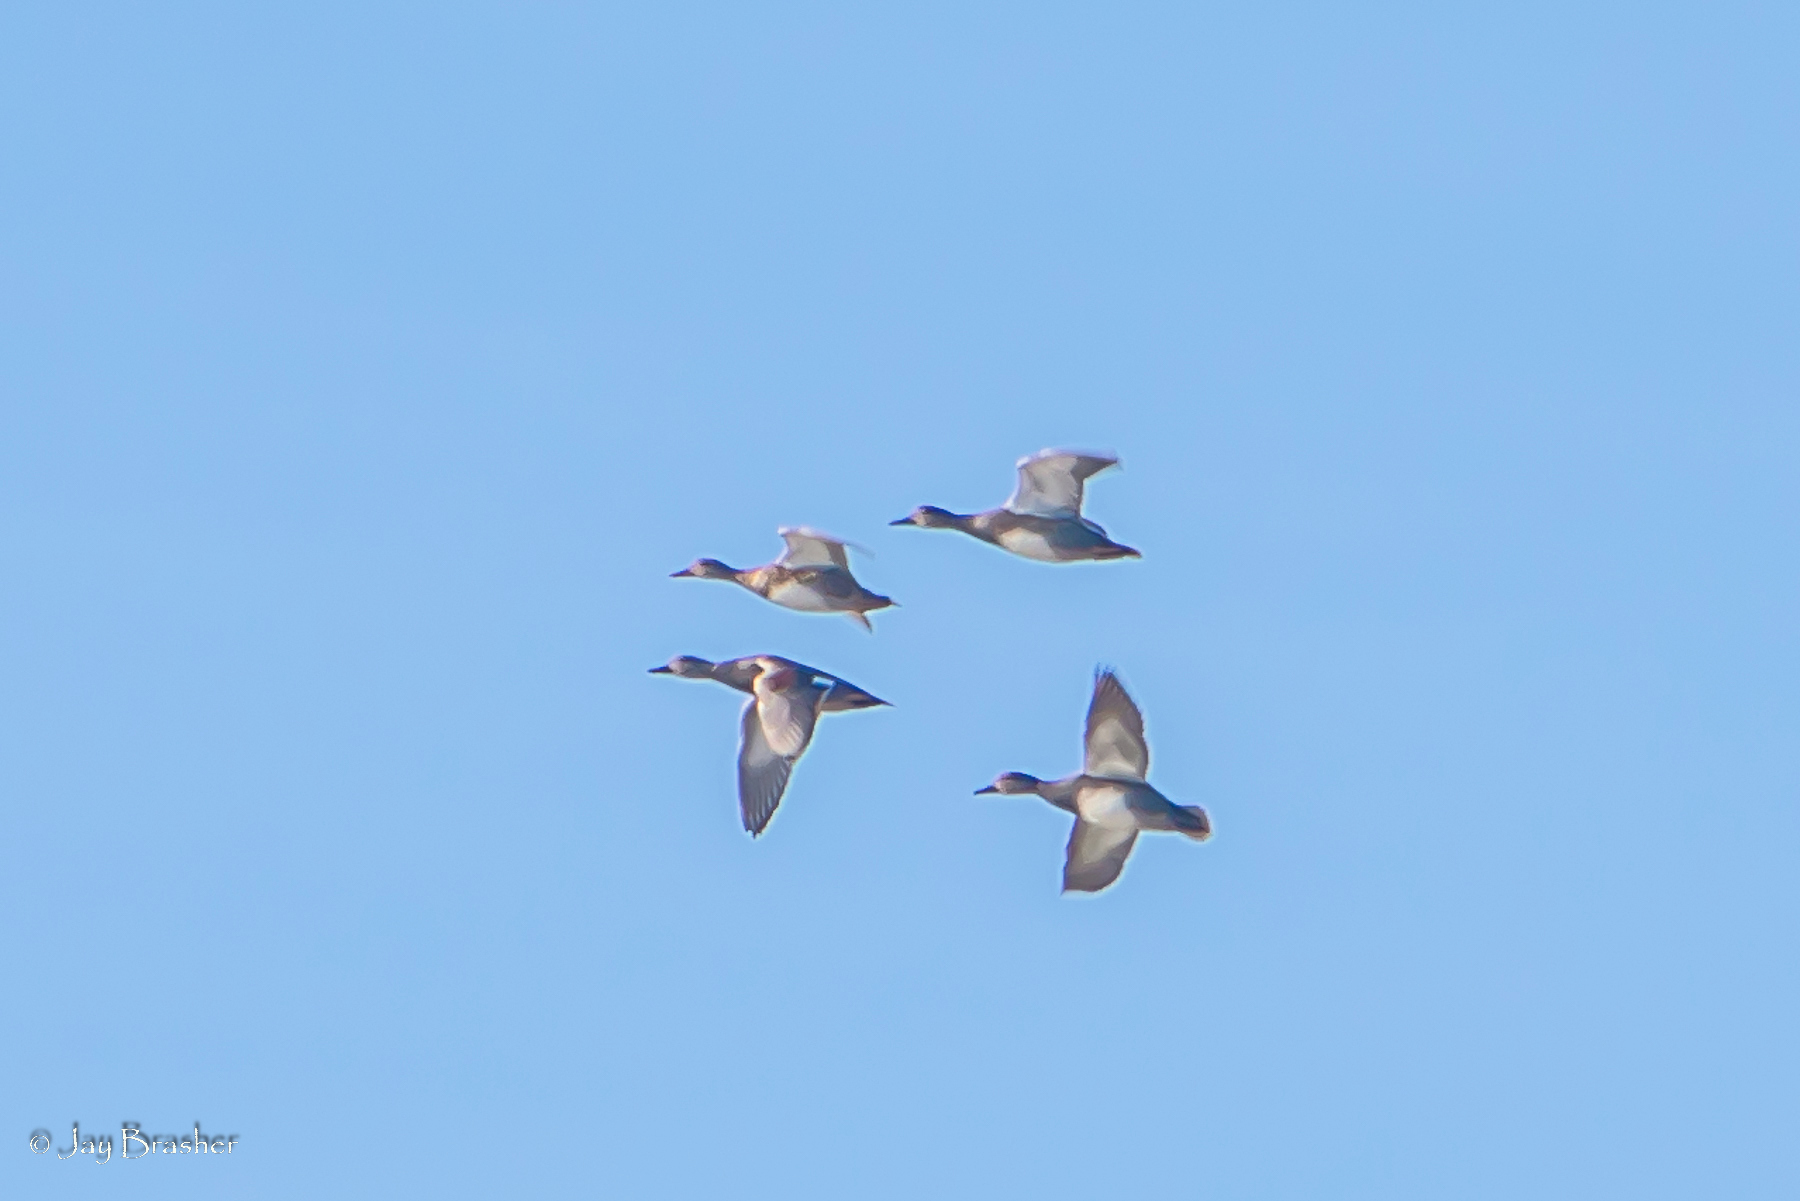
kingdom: Animalia
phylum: Chordata
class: Aves
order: Anseriformes
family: Anatidae
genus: Mareca
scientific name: Mareca strepera
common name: Gadwall
